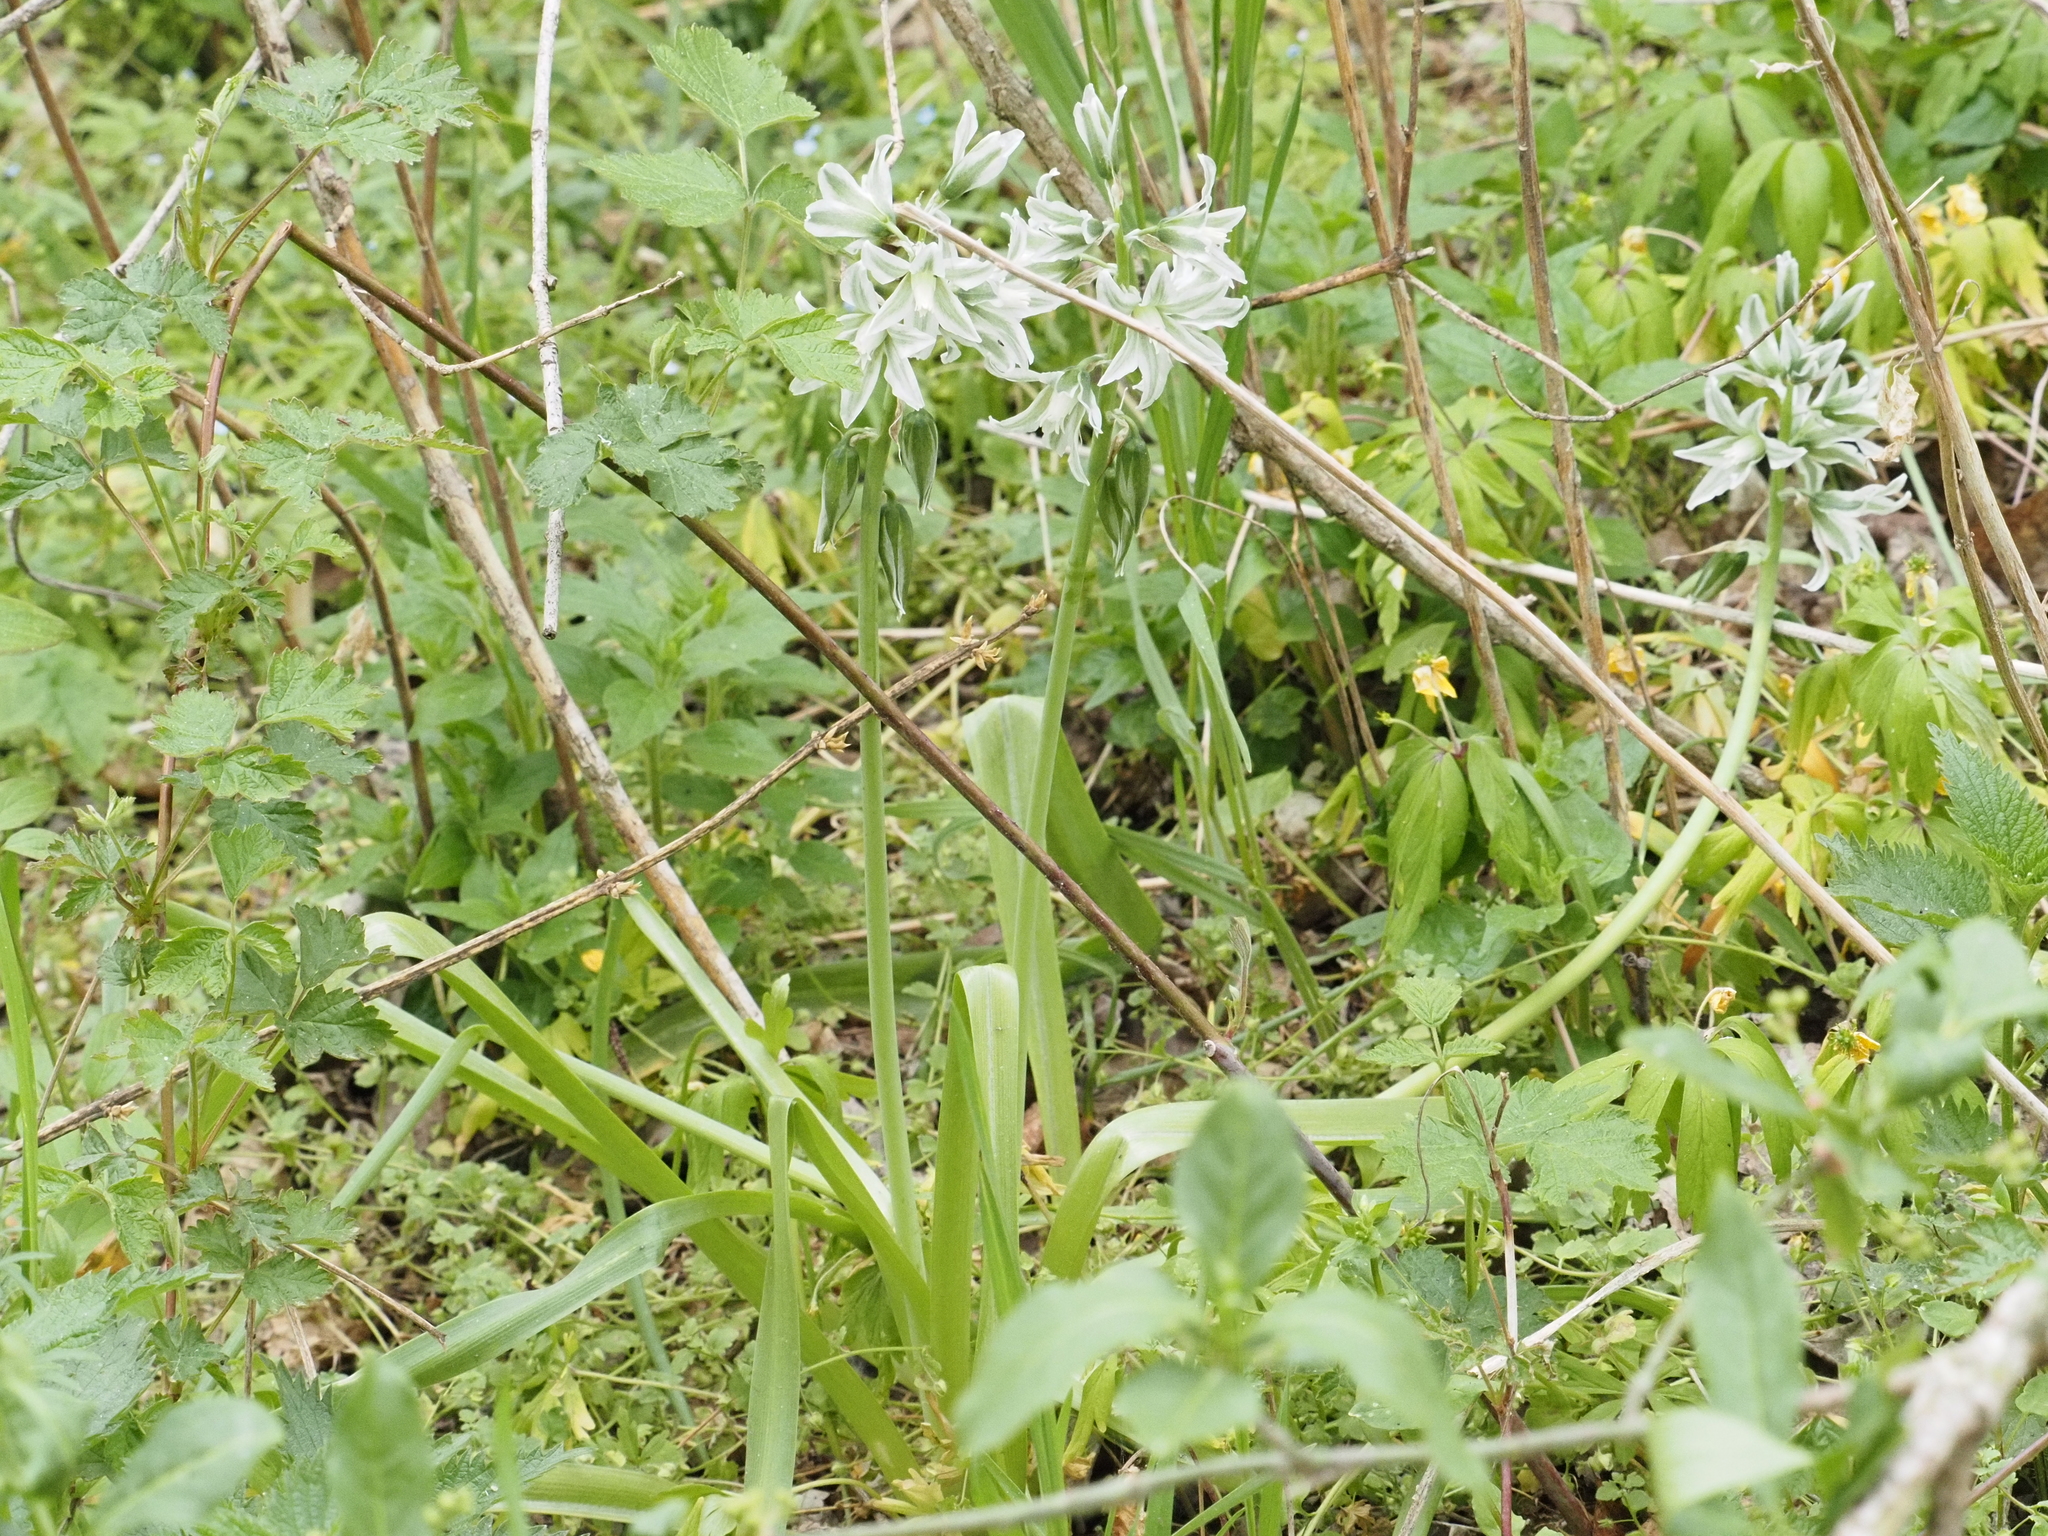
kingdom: Plantae
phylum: Tracheophyta
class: Liliopsida
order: Asparagales
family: Asparagaceae
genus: Ornithogalum
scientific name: Ornithogalum nutans
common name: Drooping star-of-bethlehem
